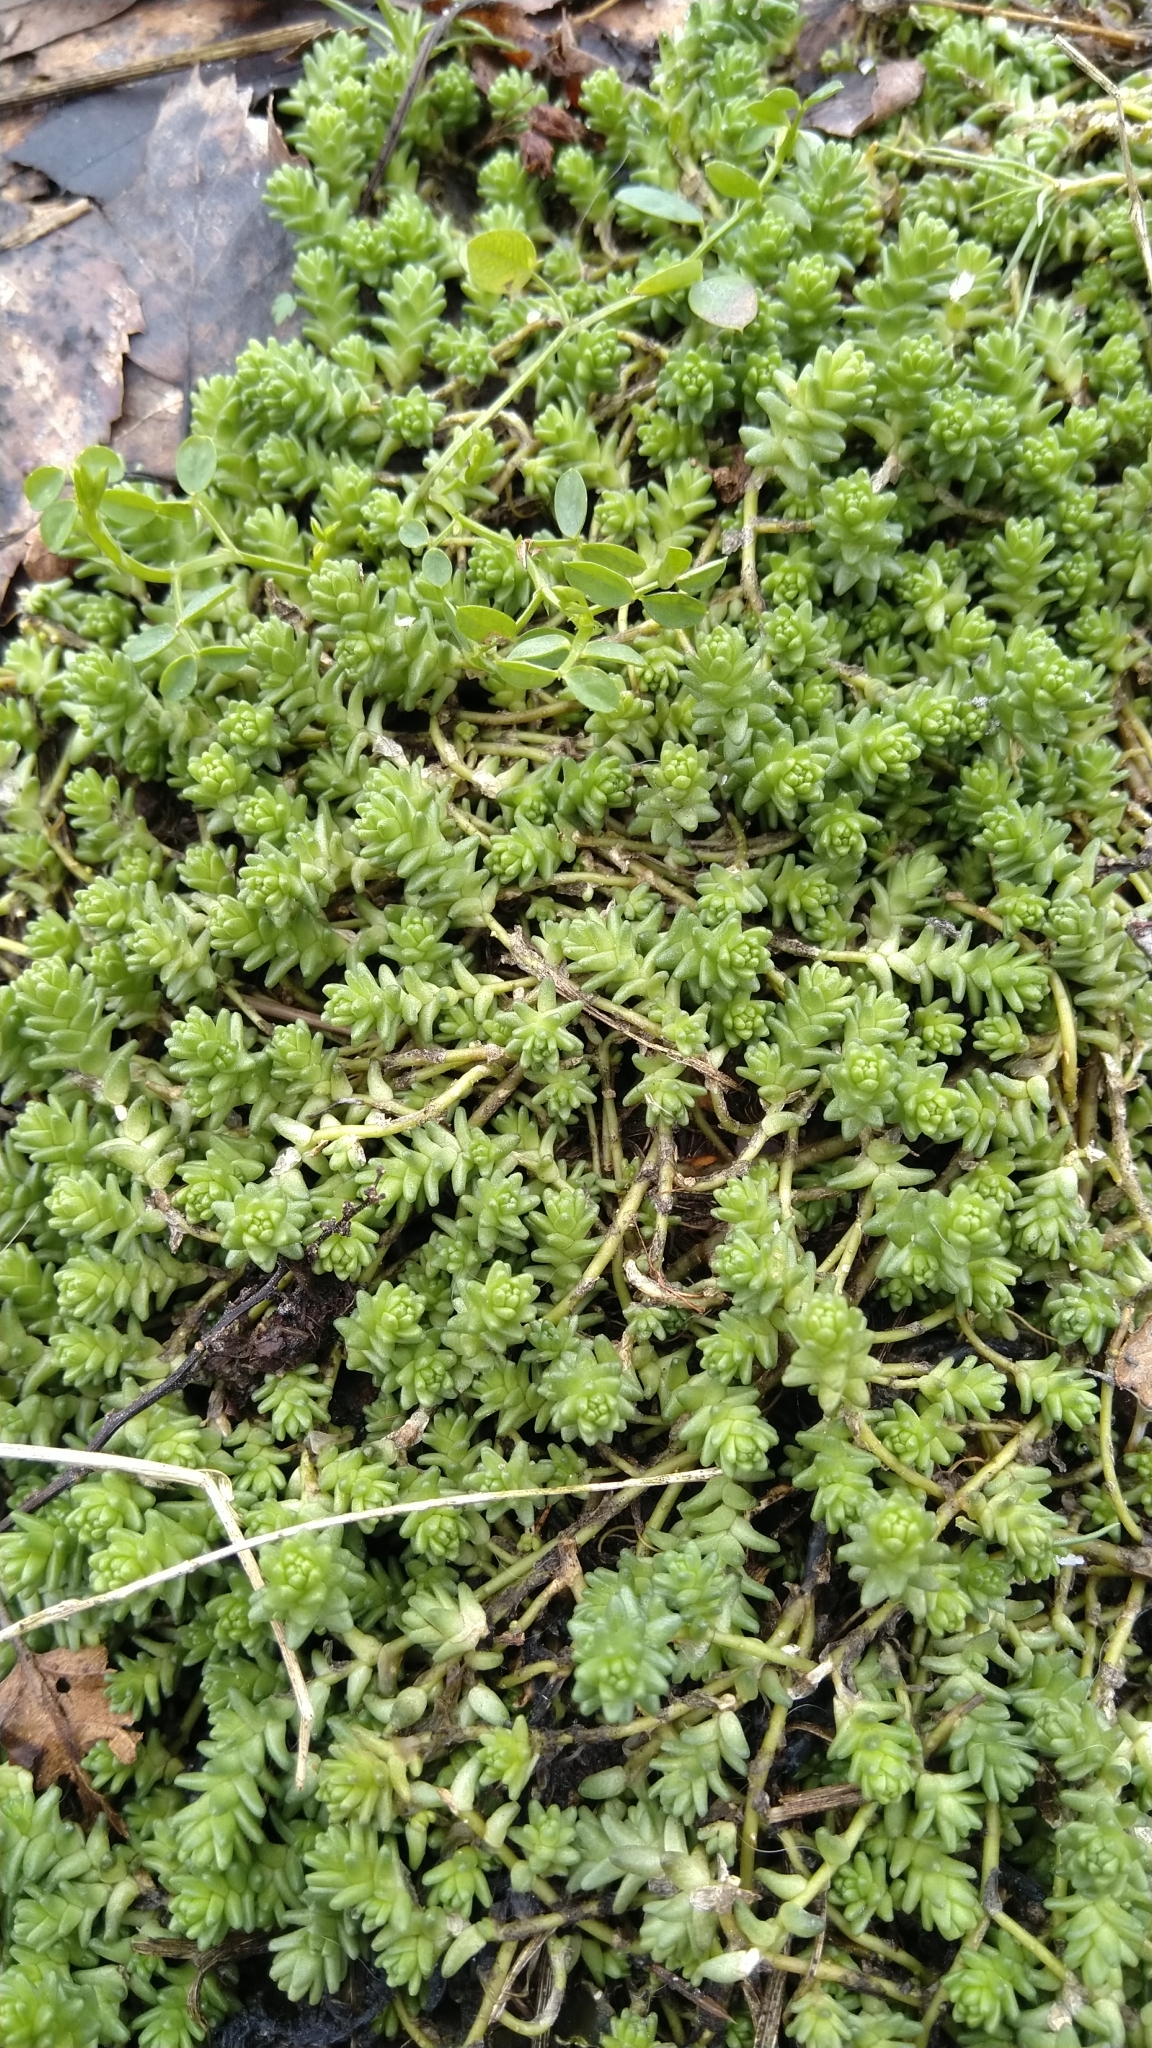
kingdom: Plantae
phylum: Tracheophyta
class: Magnoliopsida
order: Saxifragales
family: Crassulaceae
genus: Sedum
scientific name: Sedum acre
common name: Biting stonecrop
